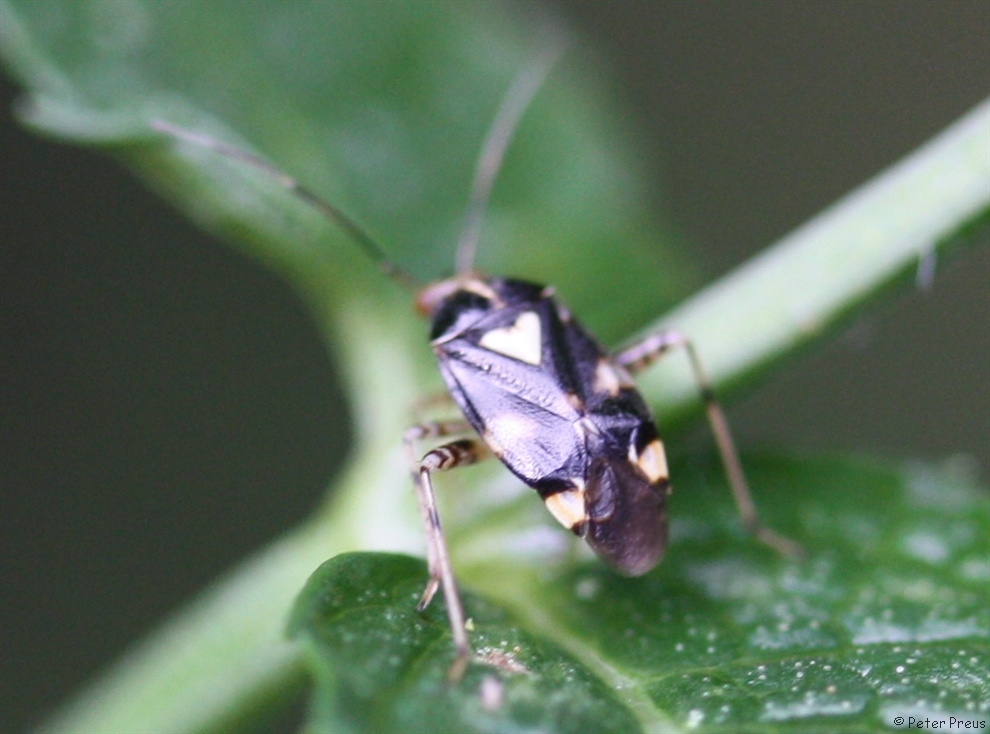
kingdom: Animalia
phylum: Arthropoda
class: Insecta
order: Hemiptera
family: Miridae
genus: Liocoris
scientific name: Liocoris tripustulatus
